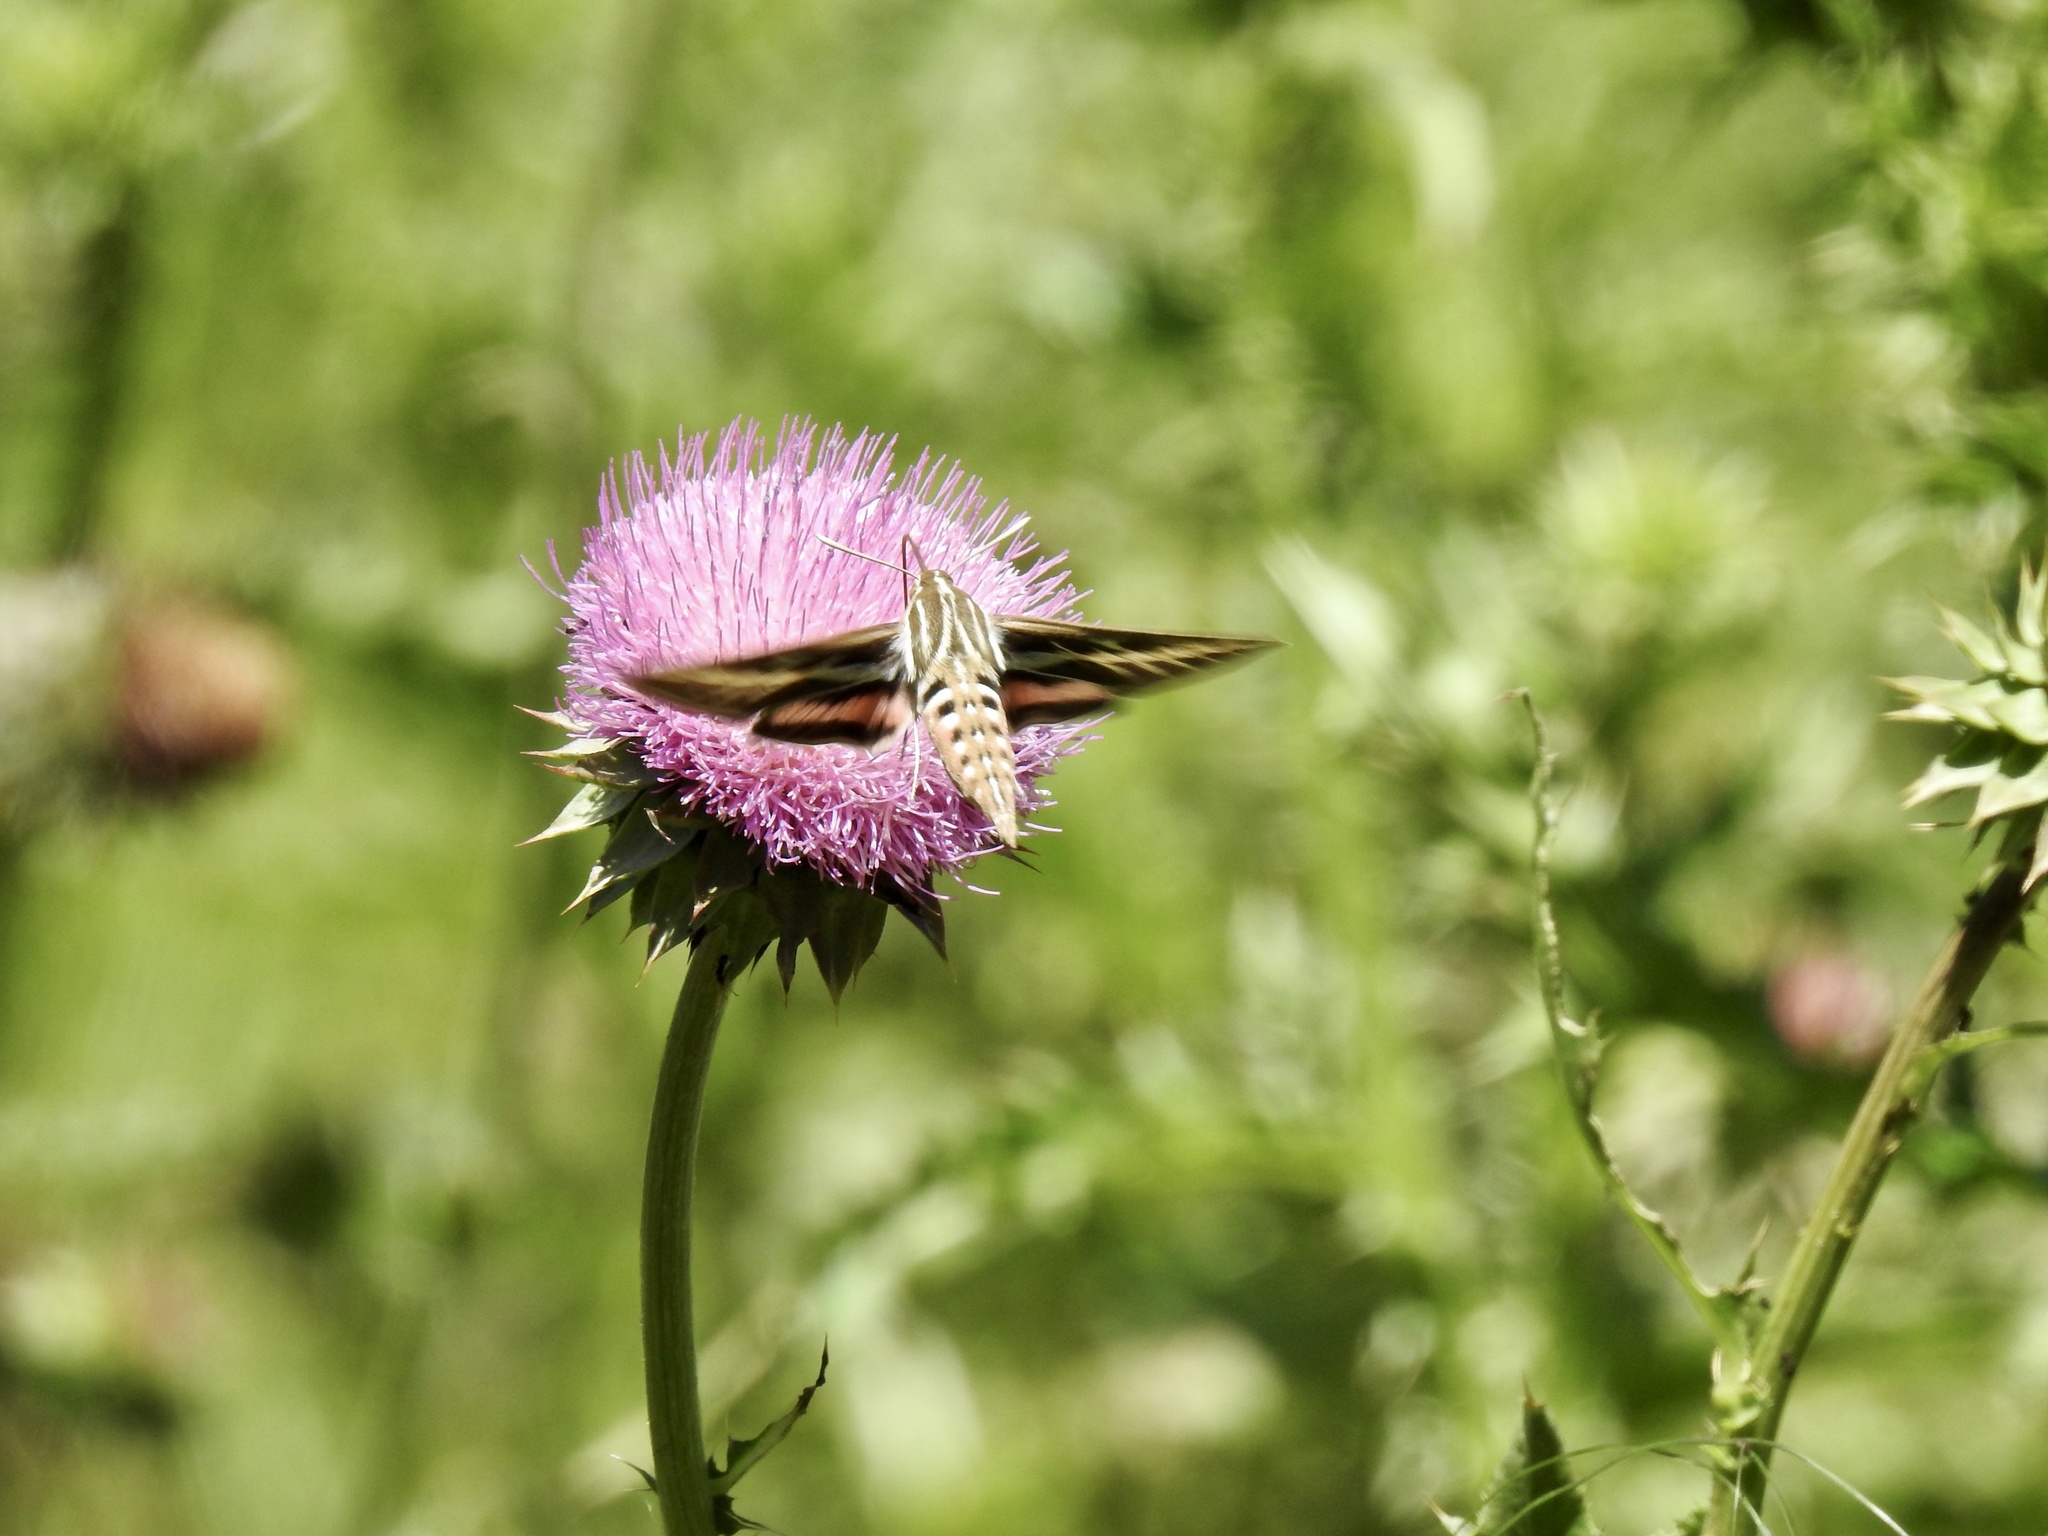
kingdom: Animalia
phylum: Arthropoda
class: Insecta
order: Lepidoptera
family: Sphingidae
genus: Hyles
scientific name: Hyles lineata
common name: White-lined sphinx
